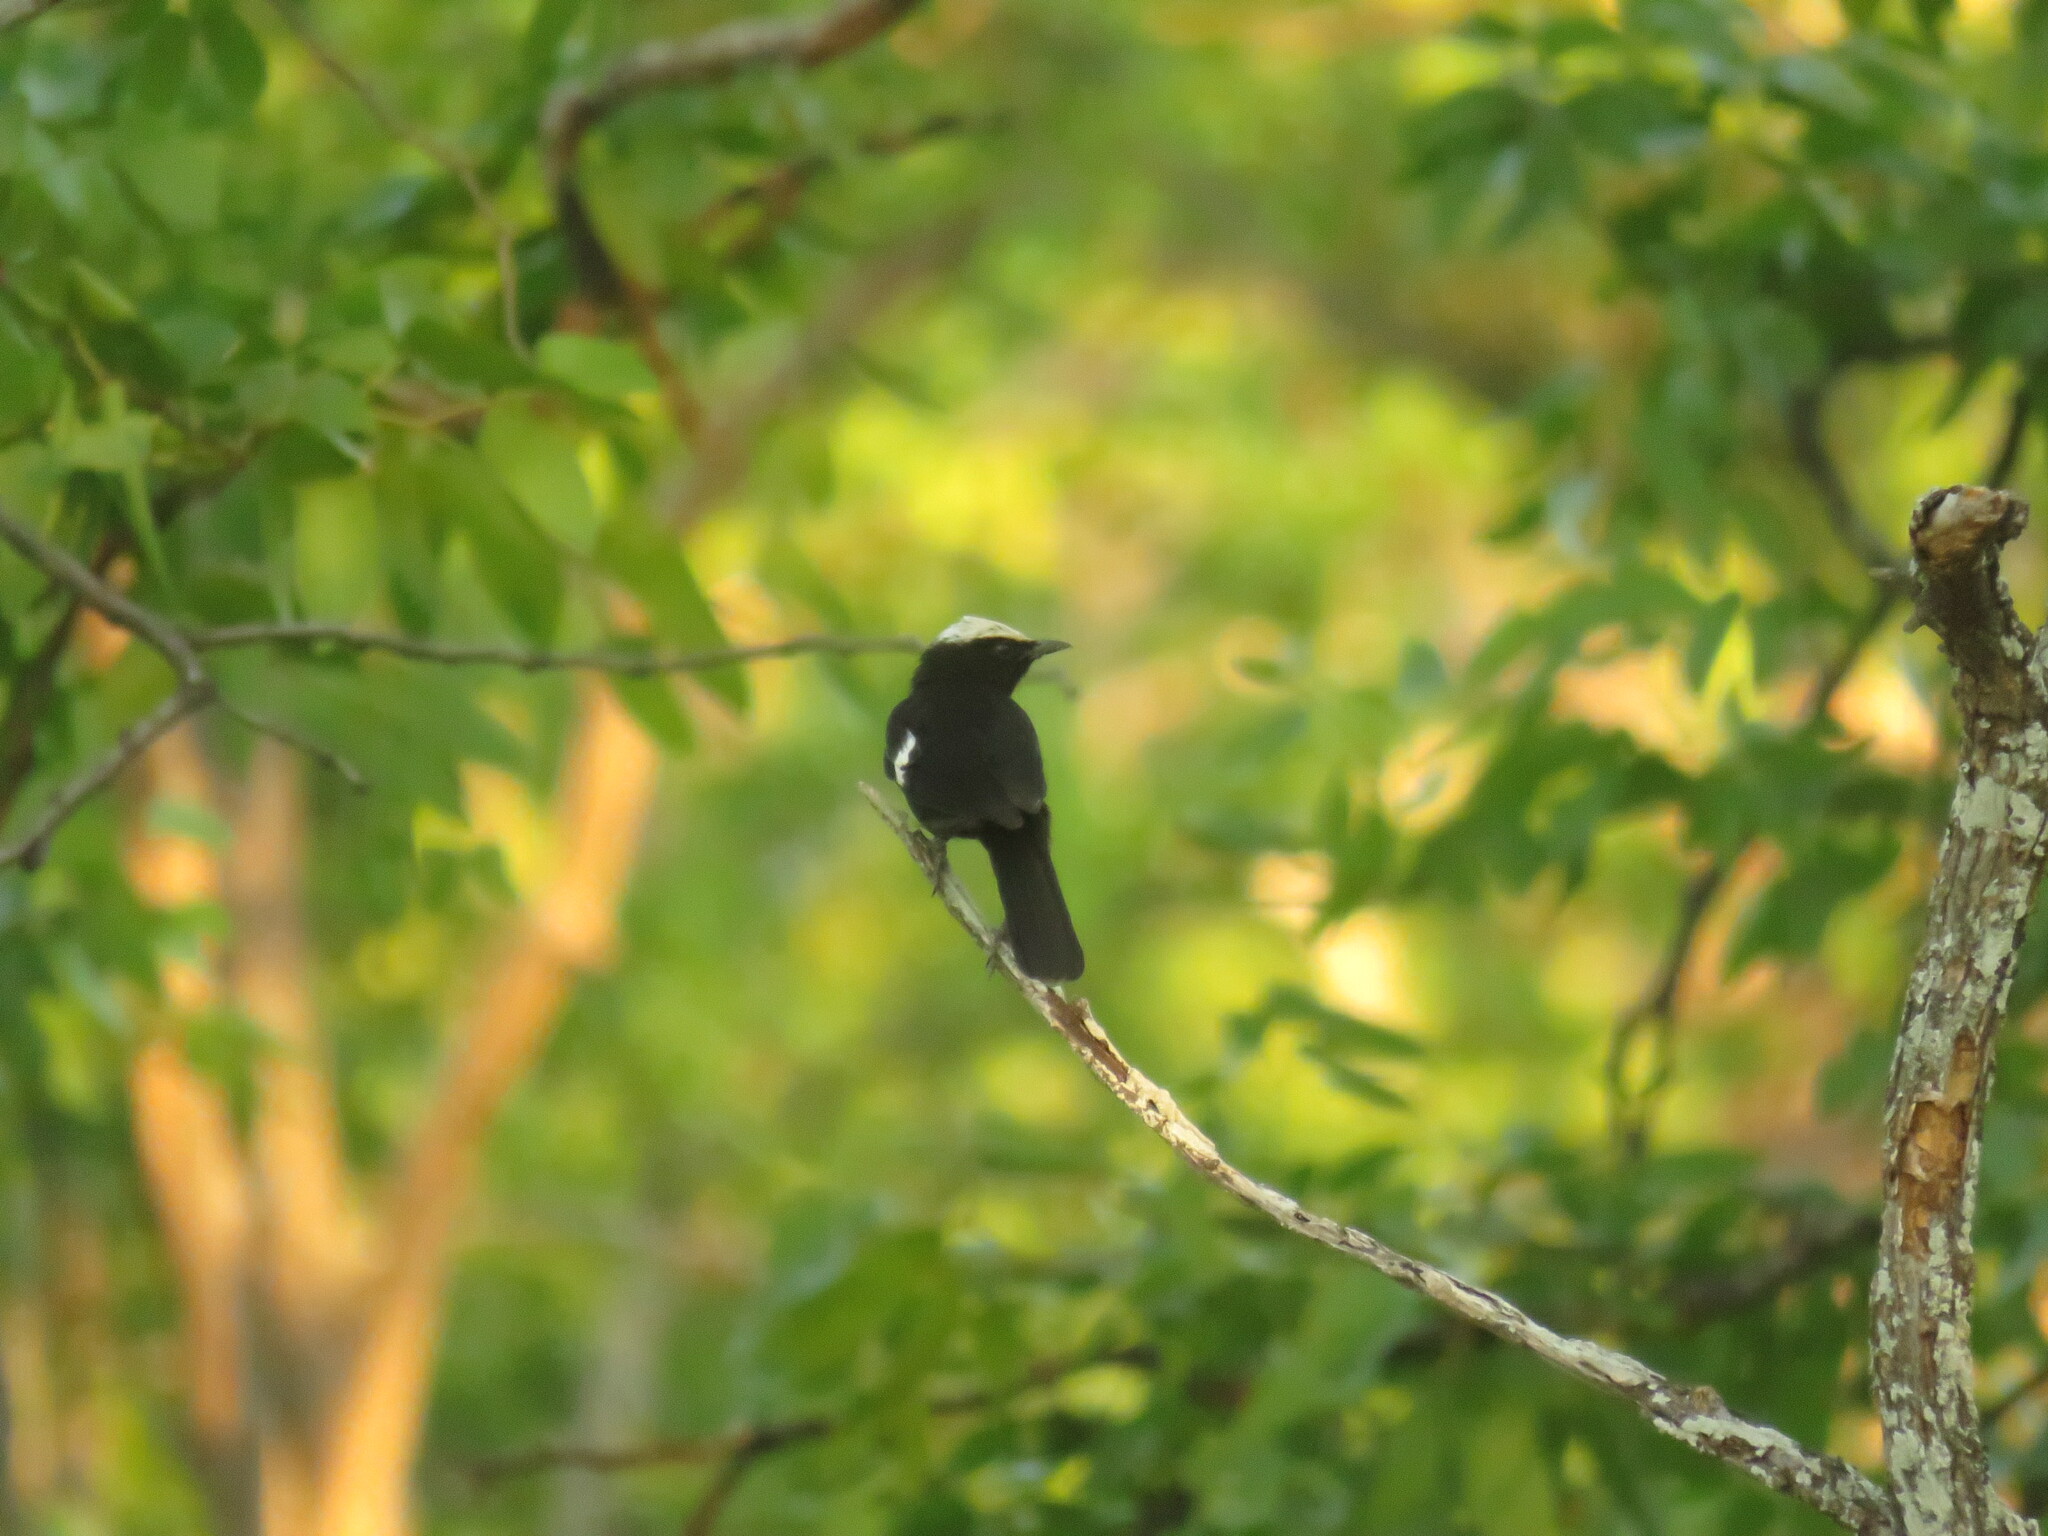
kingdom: Animalia
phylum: Chordata
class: Aves
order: Passeriformes
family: Muscicapidae
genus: Pentholaea
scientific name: Pentholaea arnotti
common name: Arnot's chat
